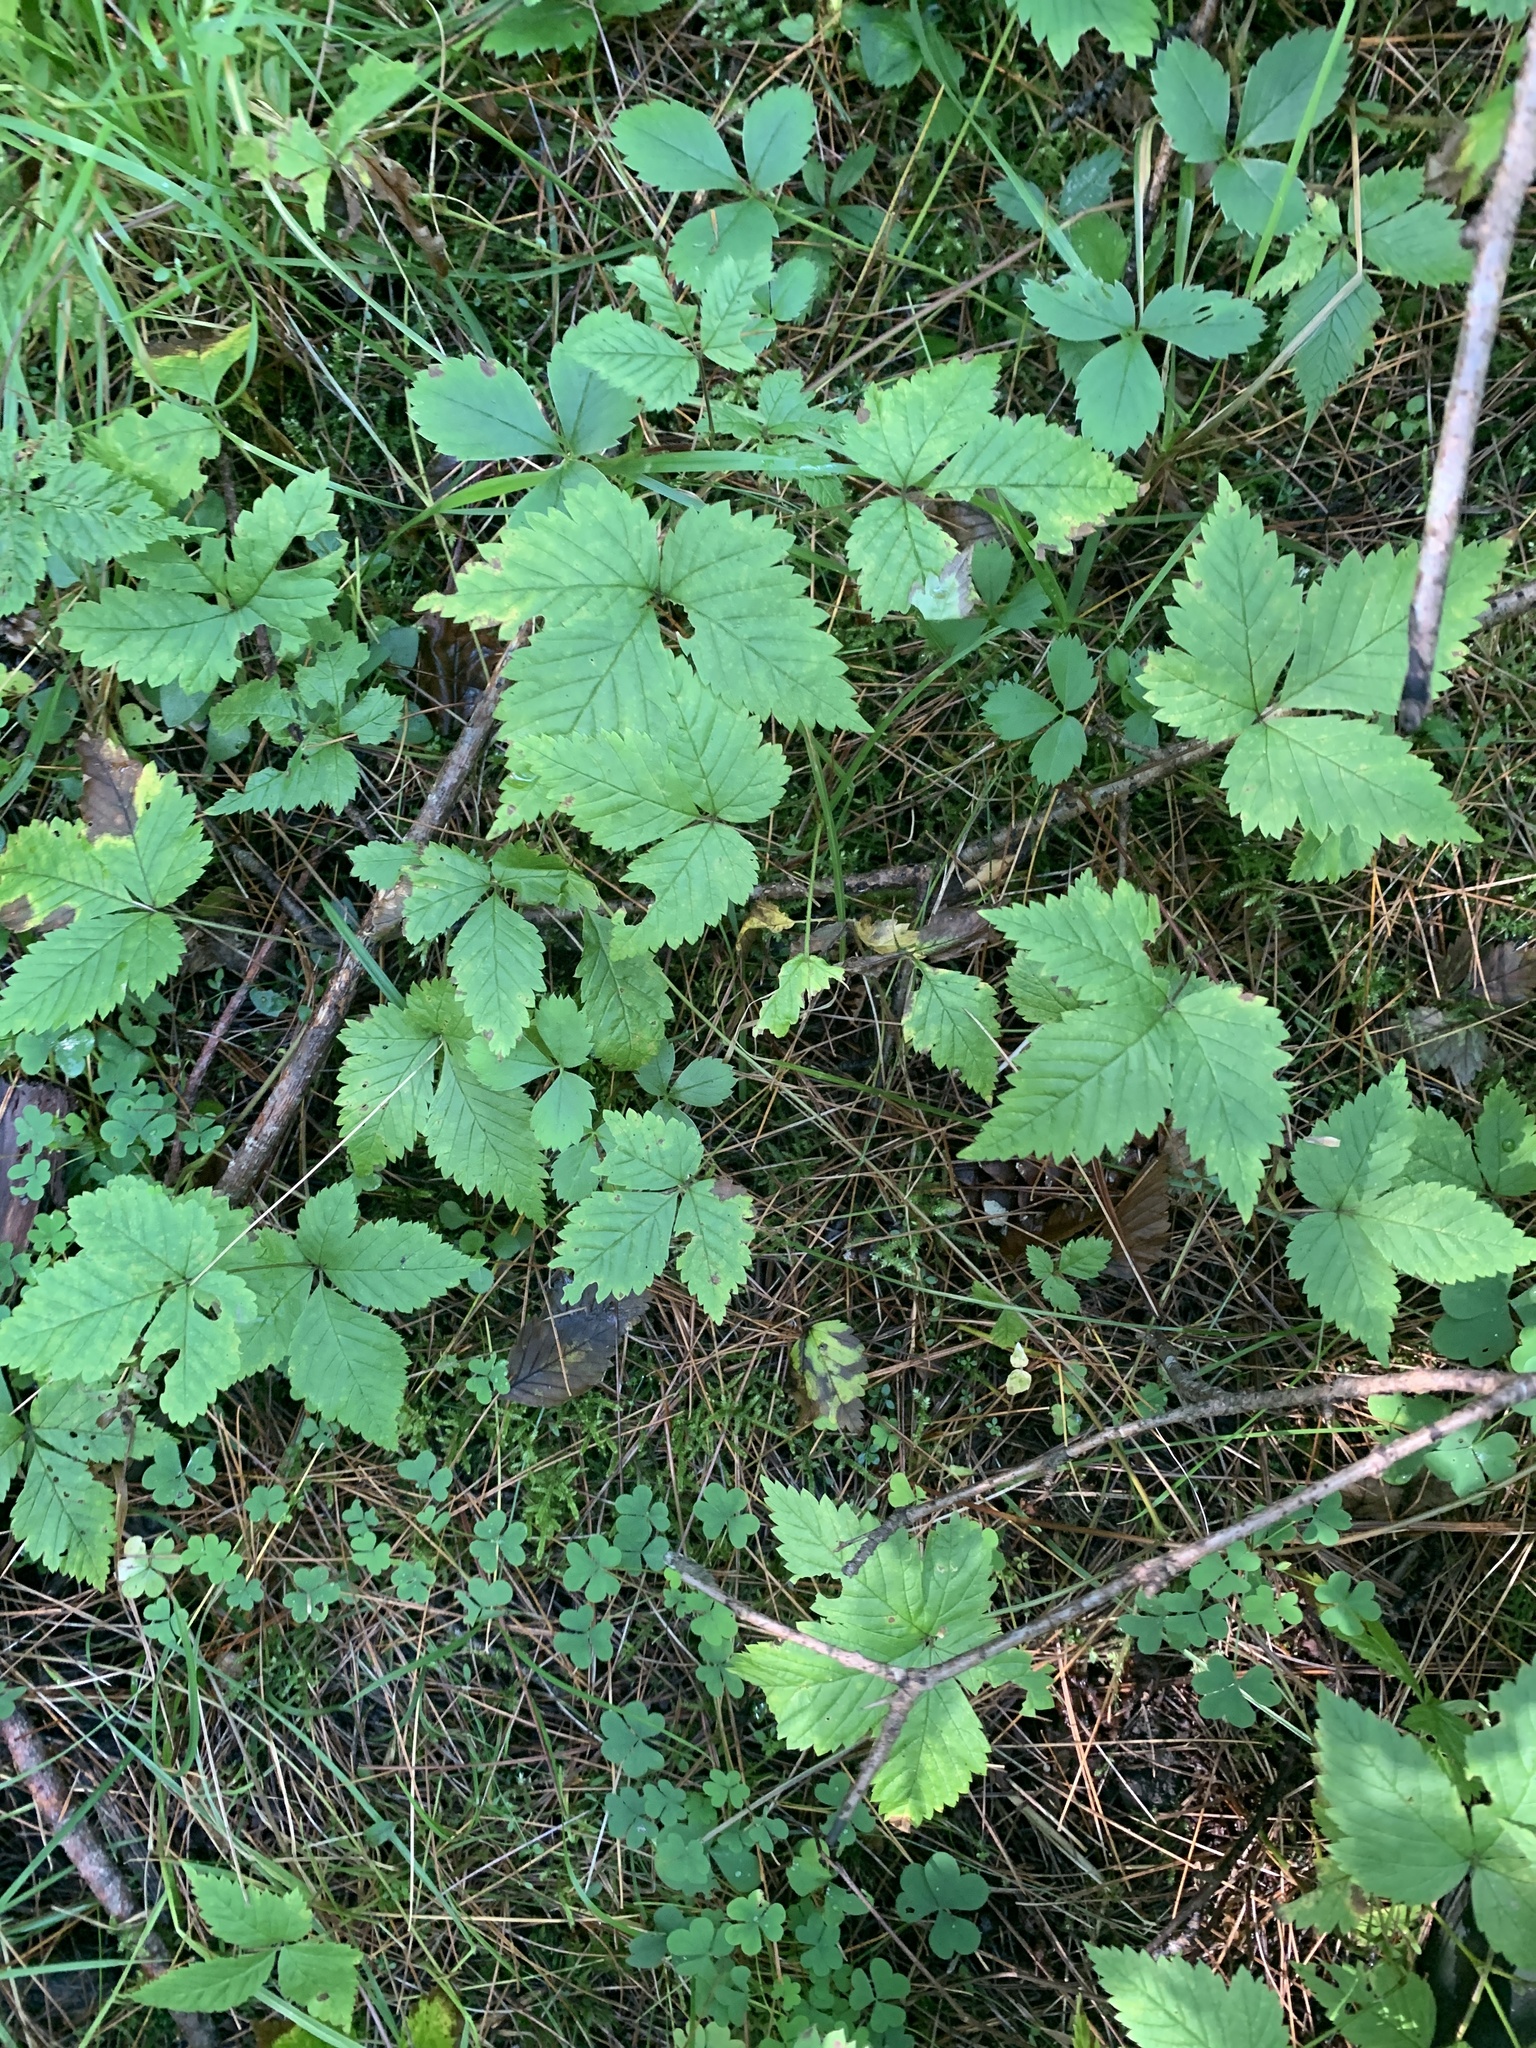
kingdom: Plantae
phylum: Tracheophyta
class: Magnoliopsida
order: Rosales
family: Rosaceae
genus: Rubus
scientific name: Rubus pubescens
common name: Dwarf raspberry
